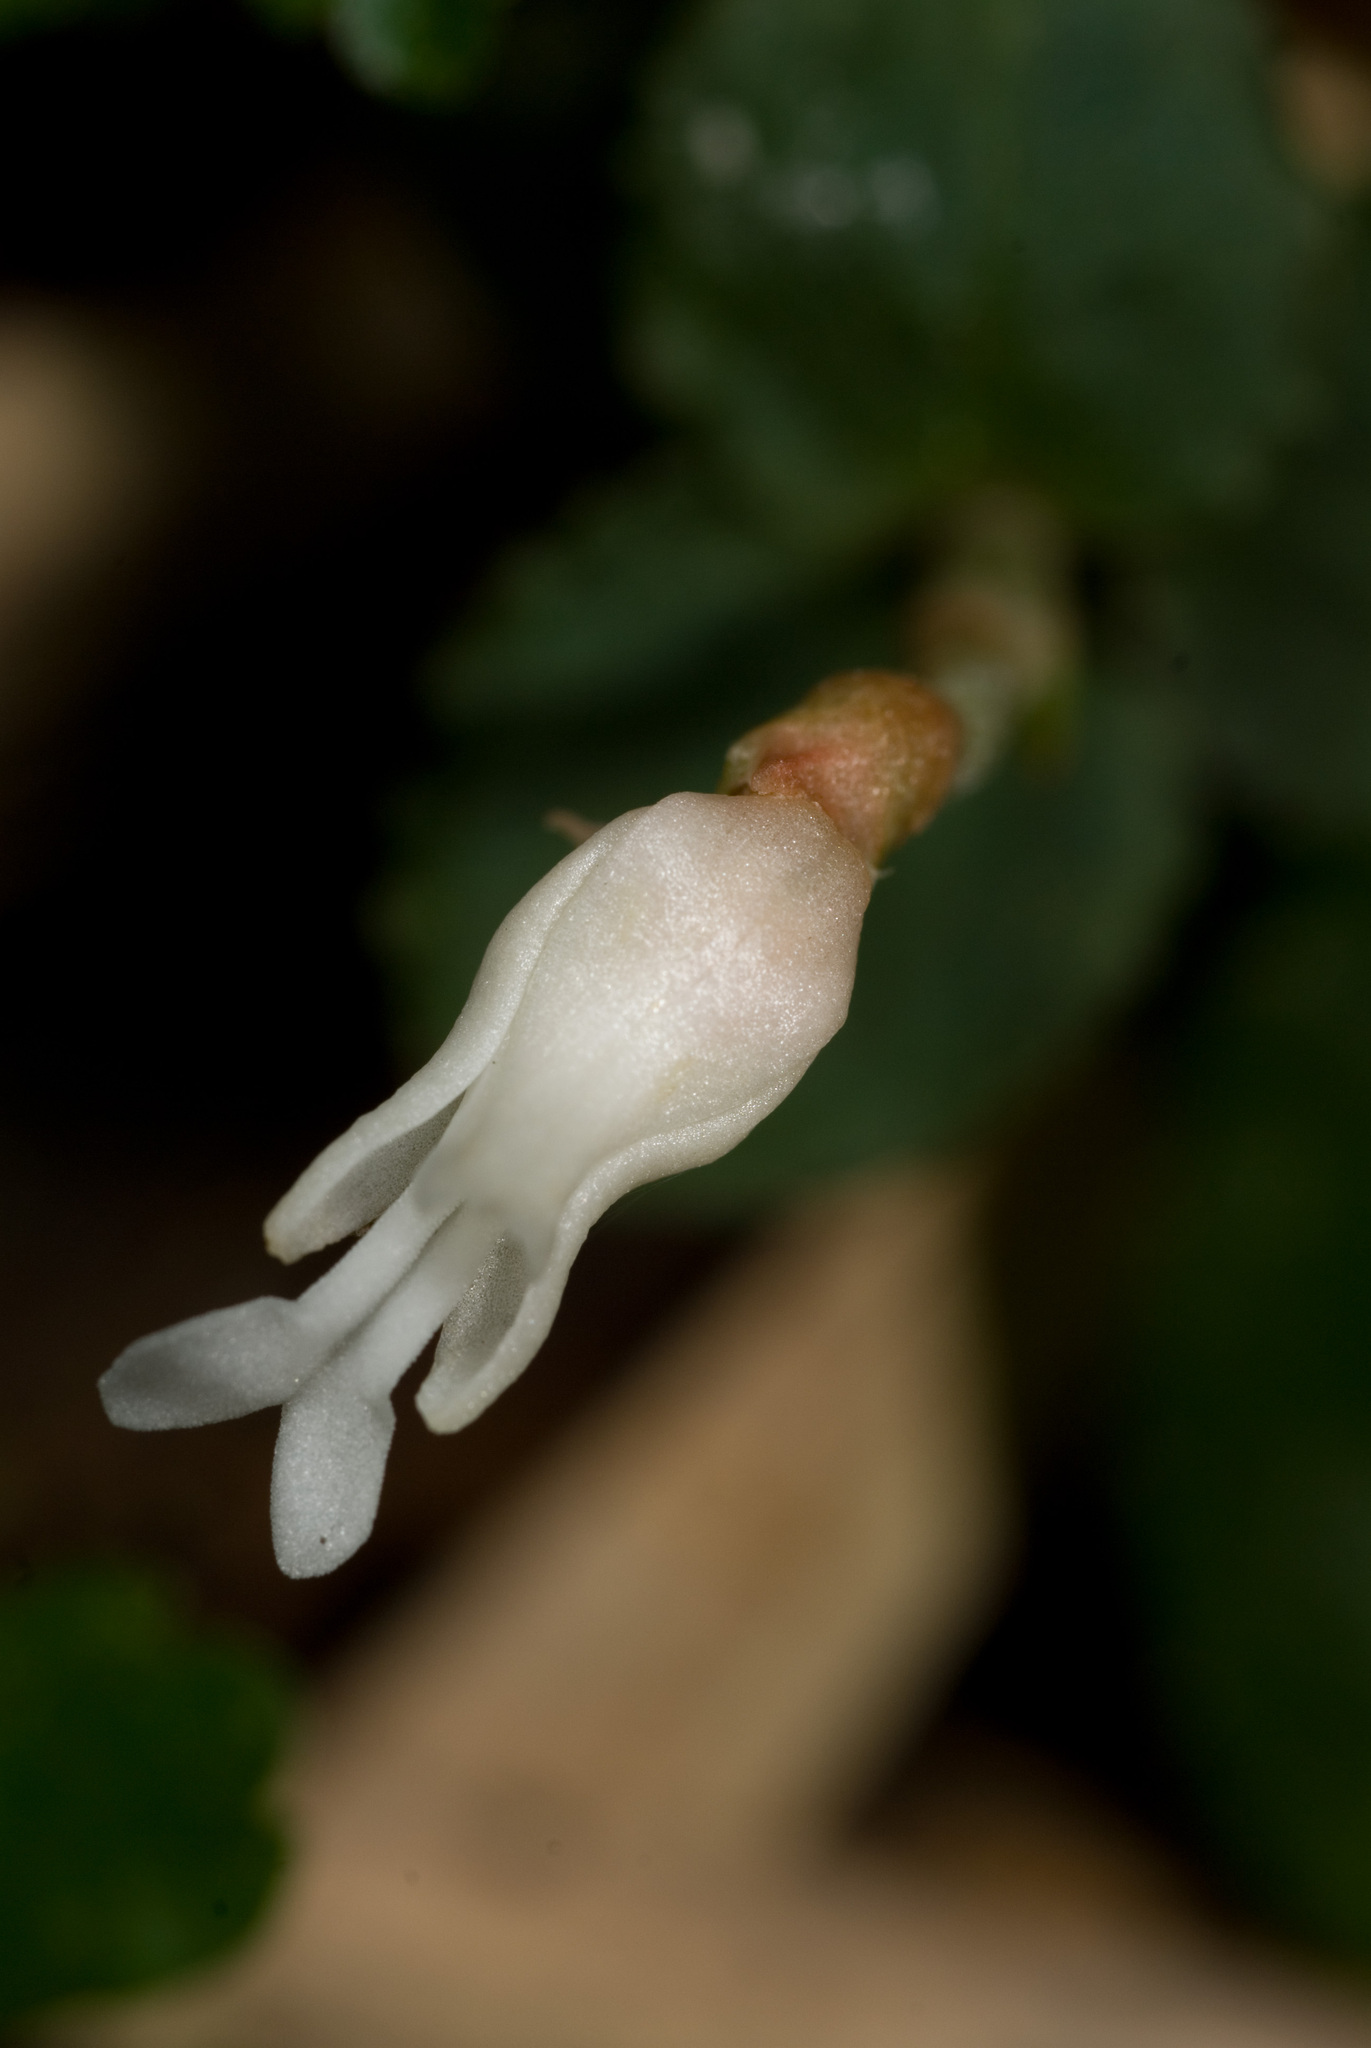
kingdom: Plantae
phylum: Tracheophyta
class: Liliopsida
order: Asparagales
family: Orchidaceae
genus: Odontochilus
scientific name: Odontochilus drymoglossifolius
